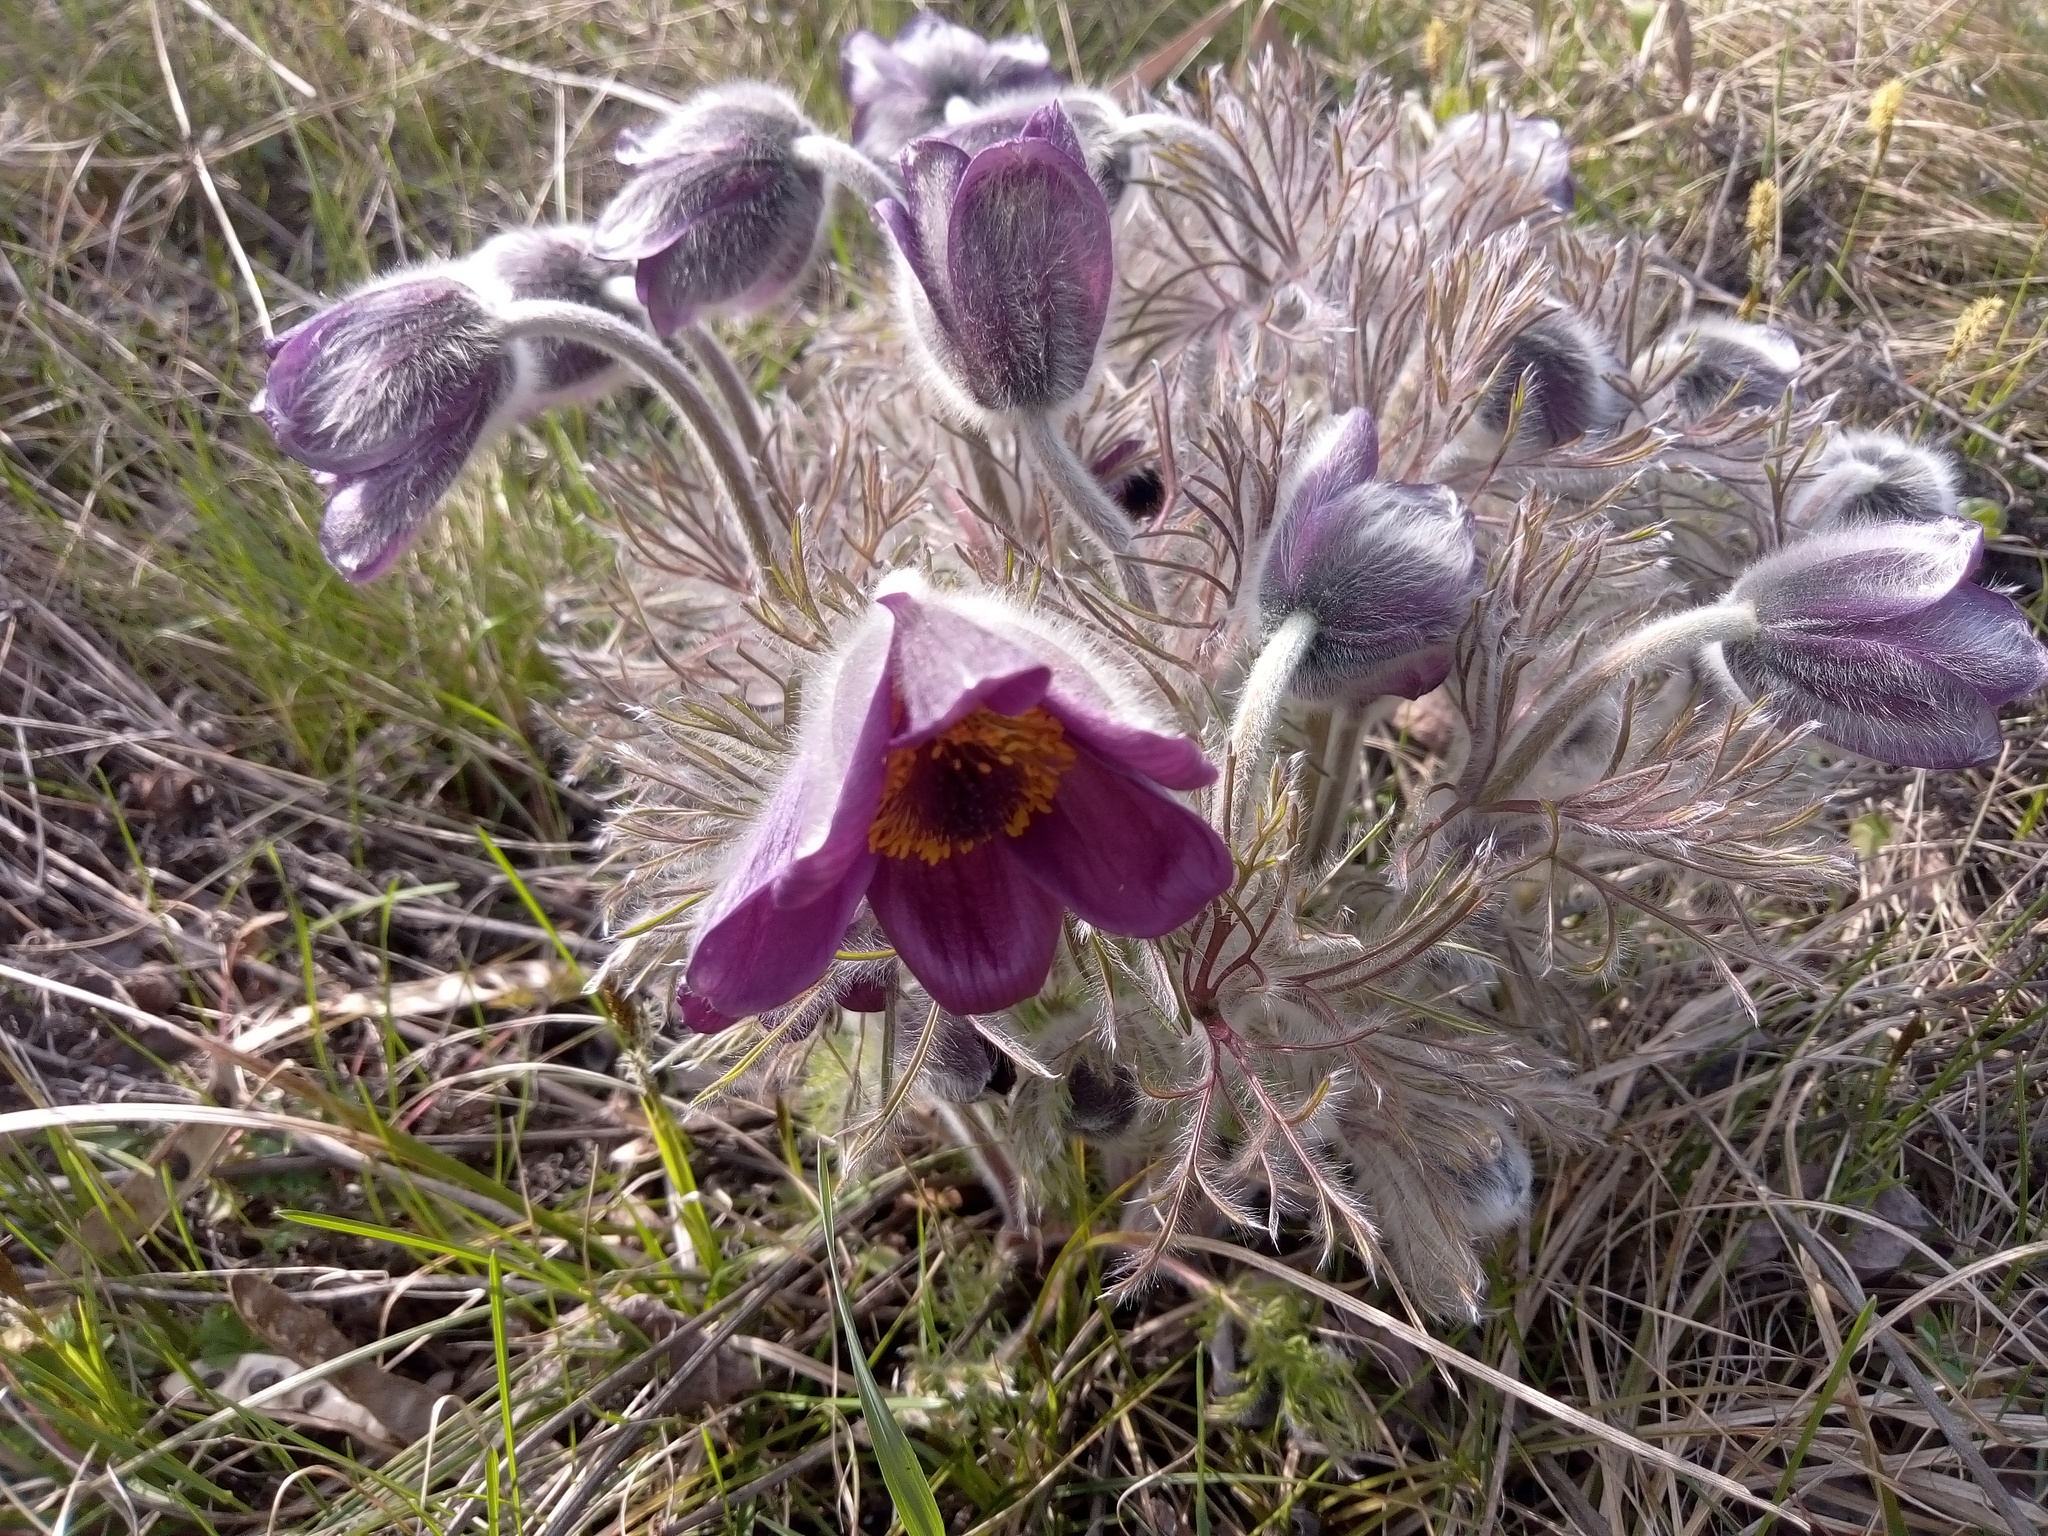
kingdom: Plantae
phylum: Tracheophyta
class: Magnoliopsida
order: Ranunculales
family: Ranunculaceae
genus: Pulsatilla
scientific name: Pulsatilla pratensis
